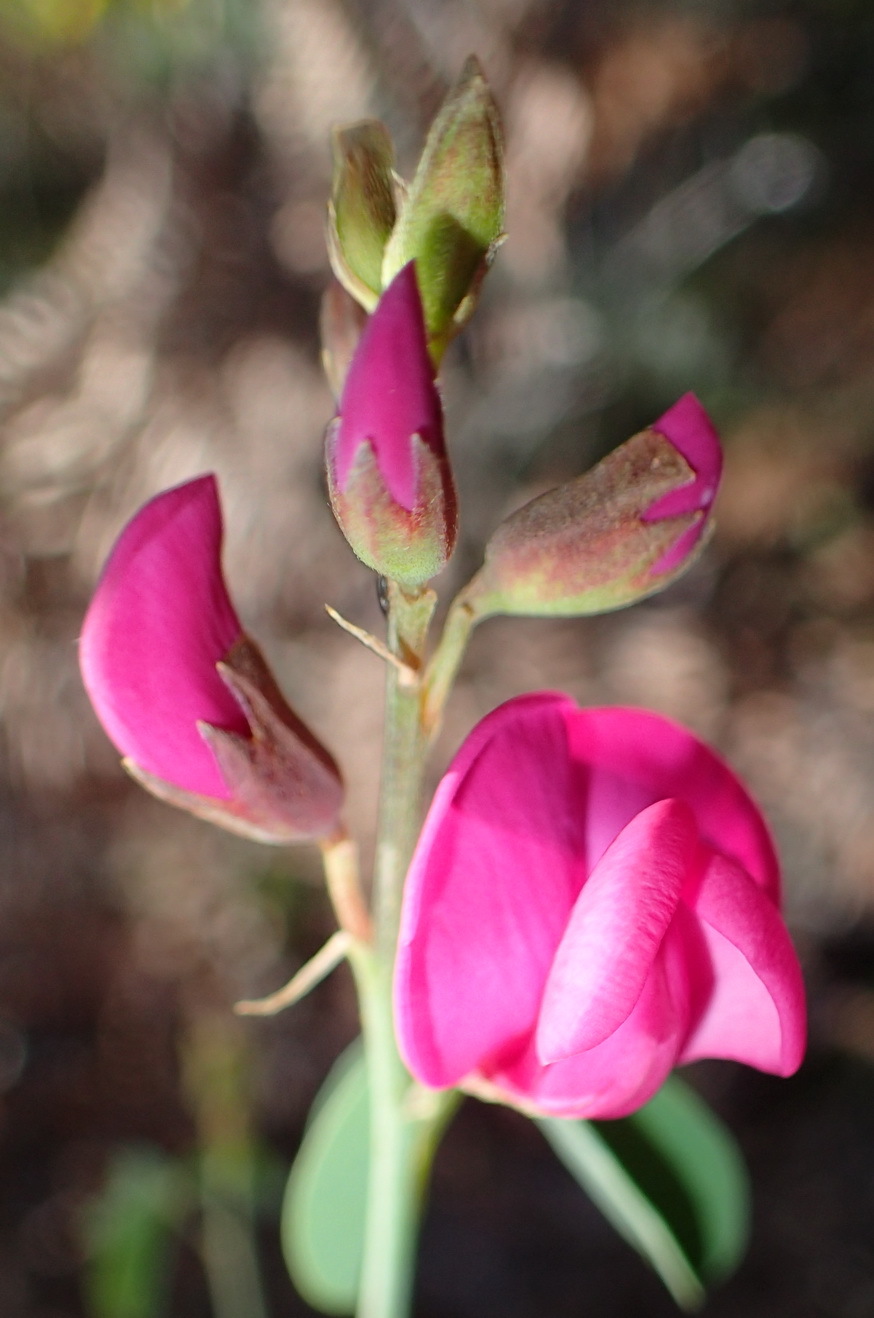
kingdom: Plantae
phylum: Tracheophyta
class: Magnoliopsida
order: Fabales
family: Fabaceae
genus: Hypocalyptus
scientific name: Hypocalyptus coluteoides
